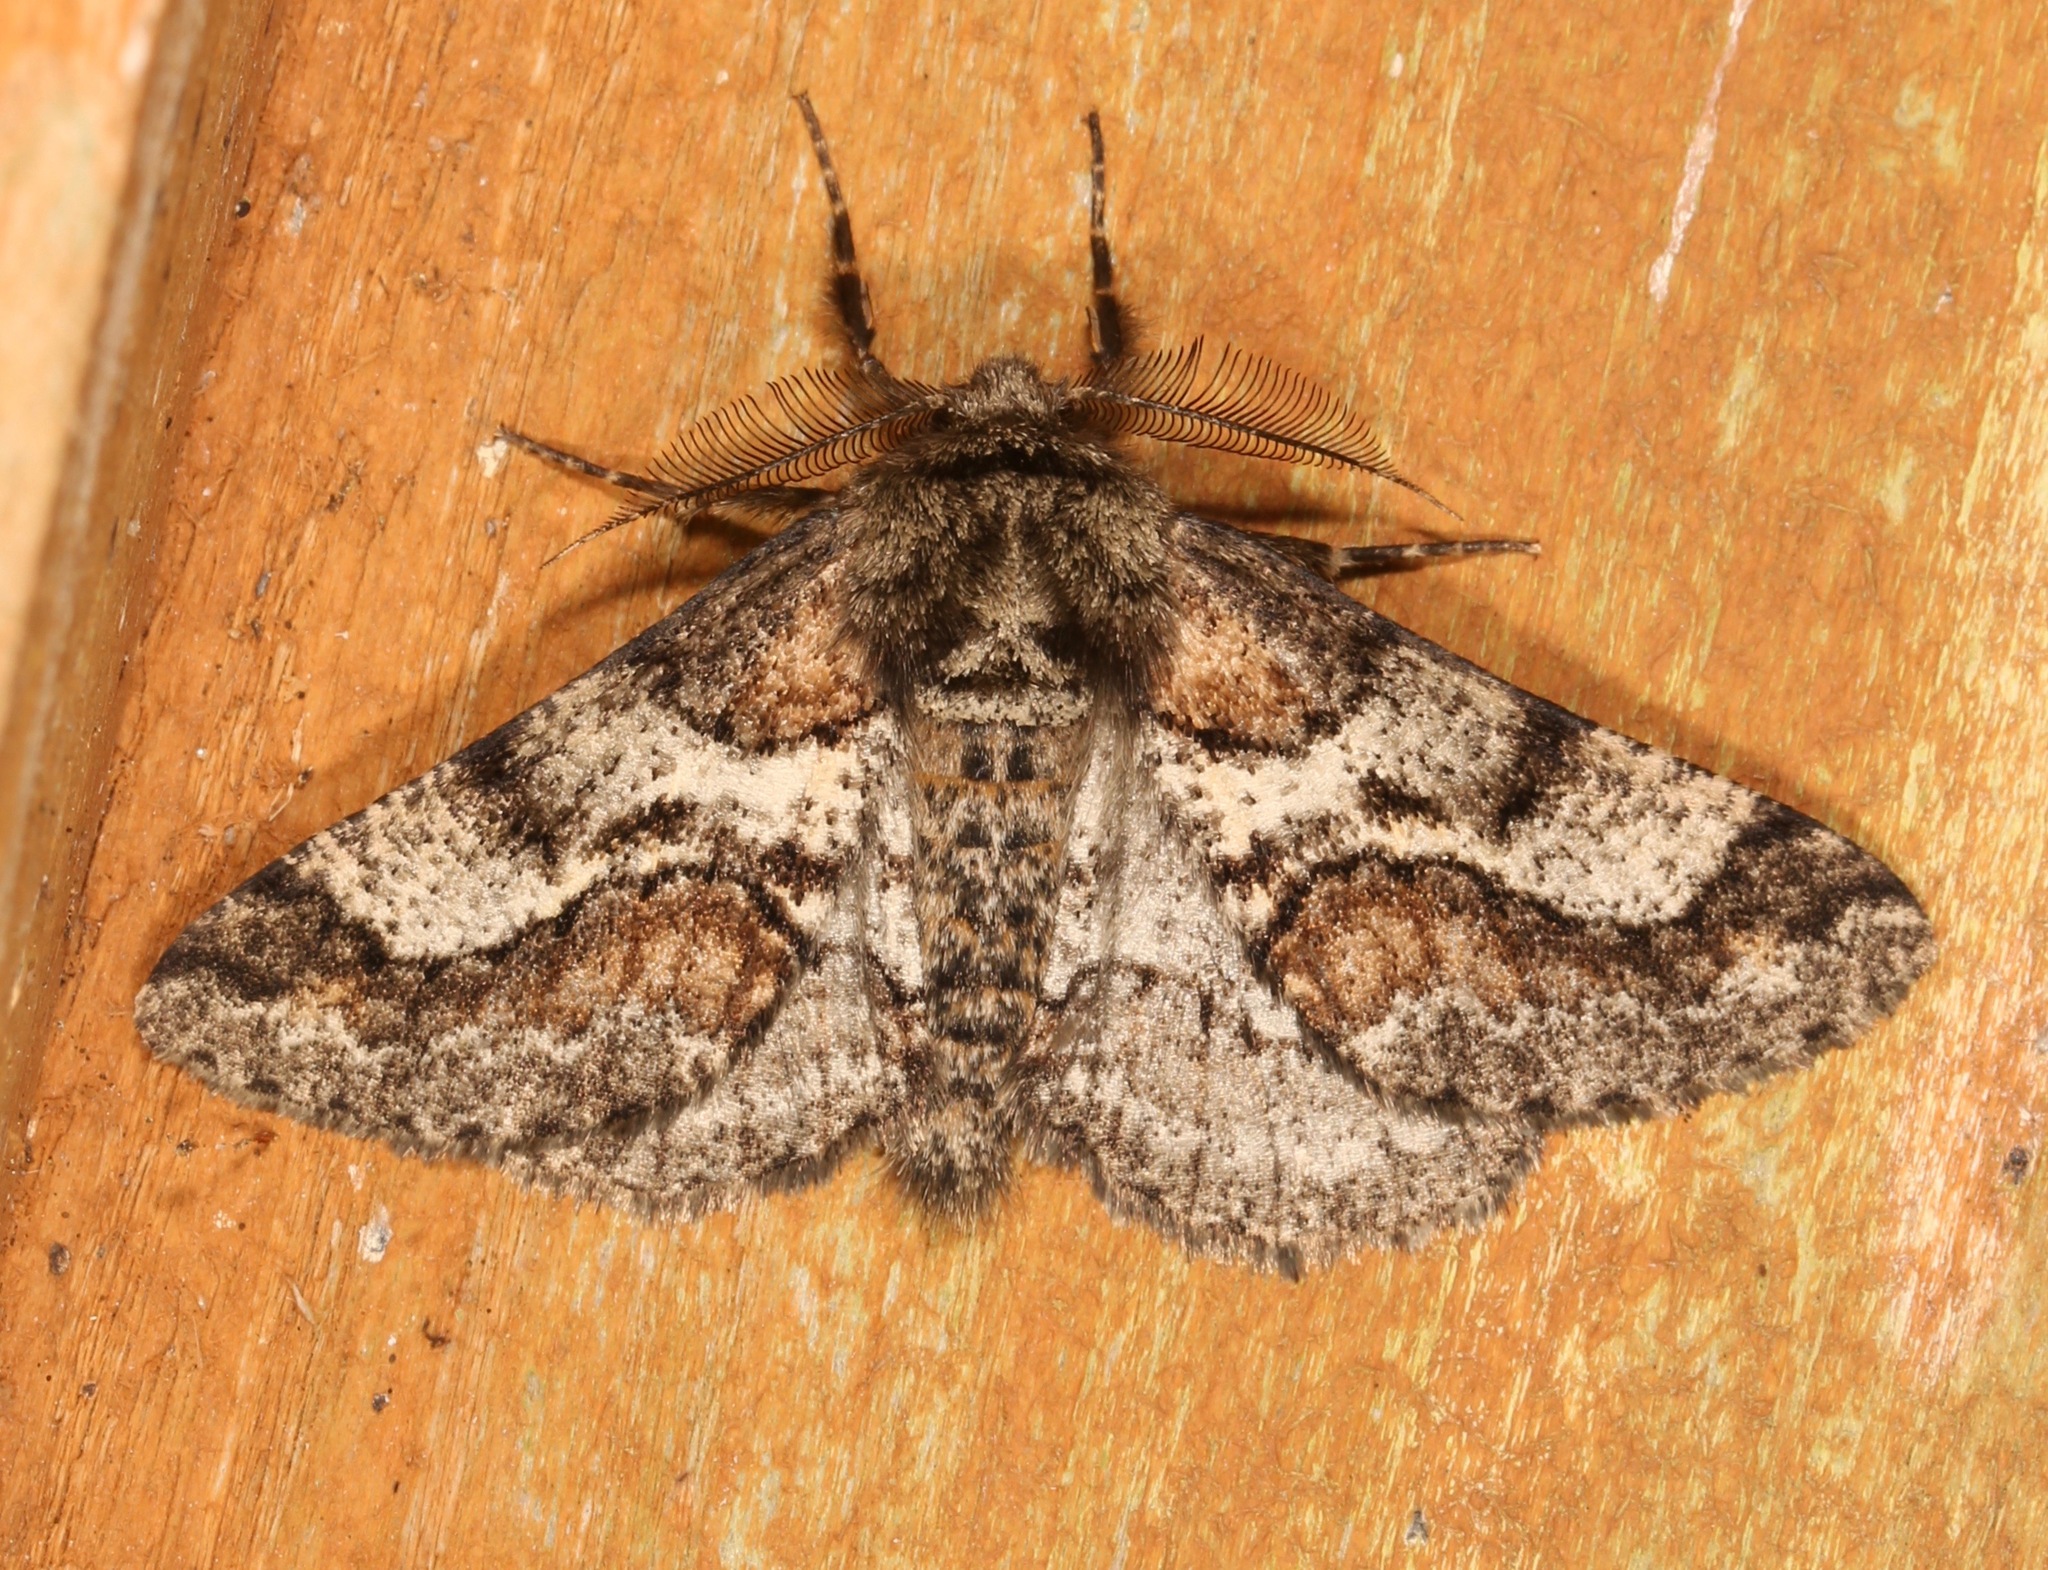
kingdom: Animalia
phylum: Arthropoda
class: Insecta
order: Lepidoptera
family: Geometridae
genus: Lycia
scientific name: Lycia ypsilon
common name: Wooly gray
